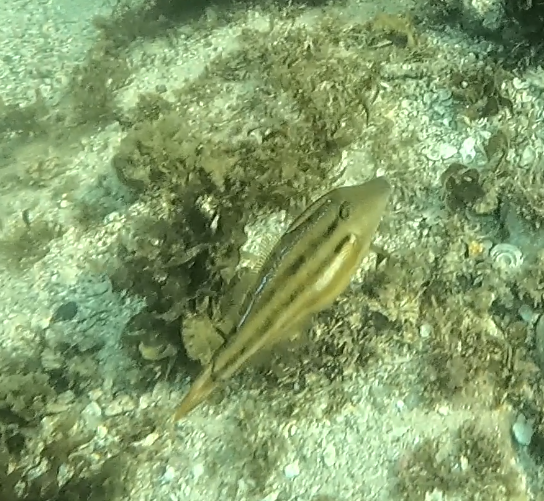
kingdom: Animalia
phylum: Chordata
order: Tetraodontiformes
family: Monacanthidae
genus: Meuschenia
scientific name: Meuschenia trachylepis
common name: Yellowfin leatherjacket
